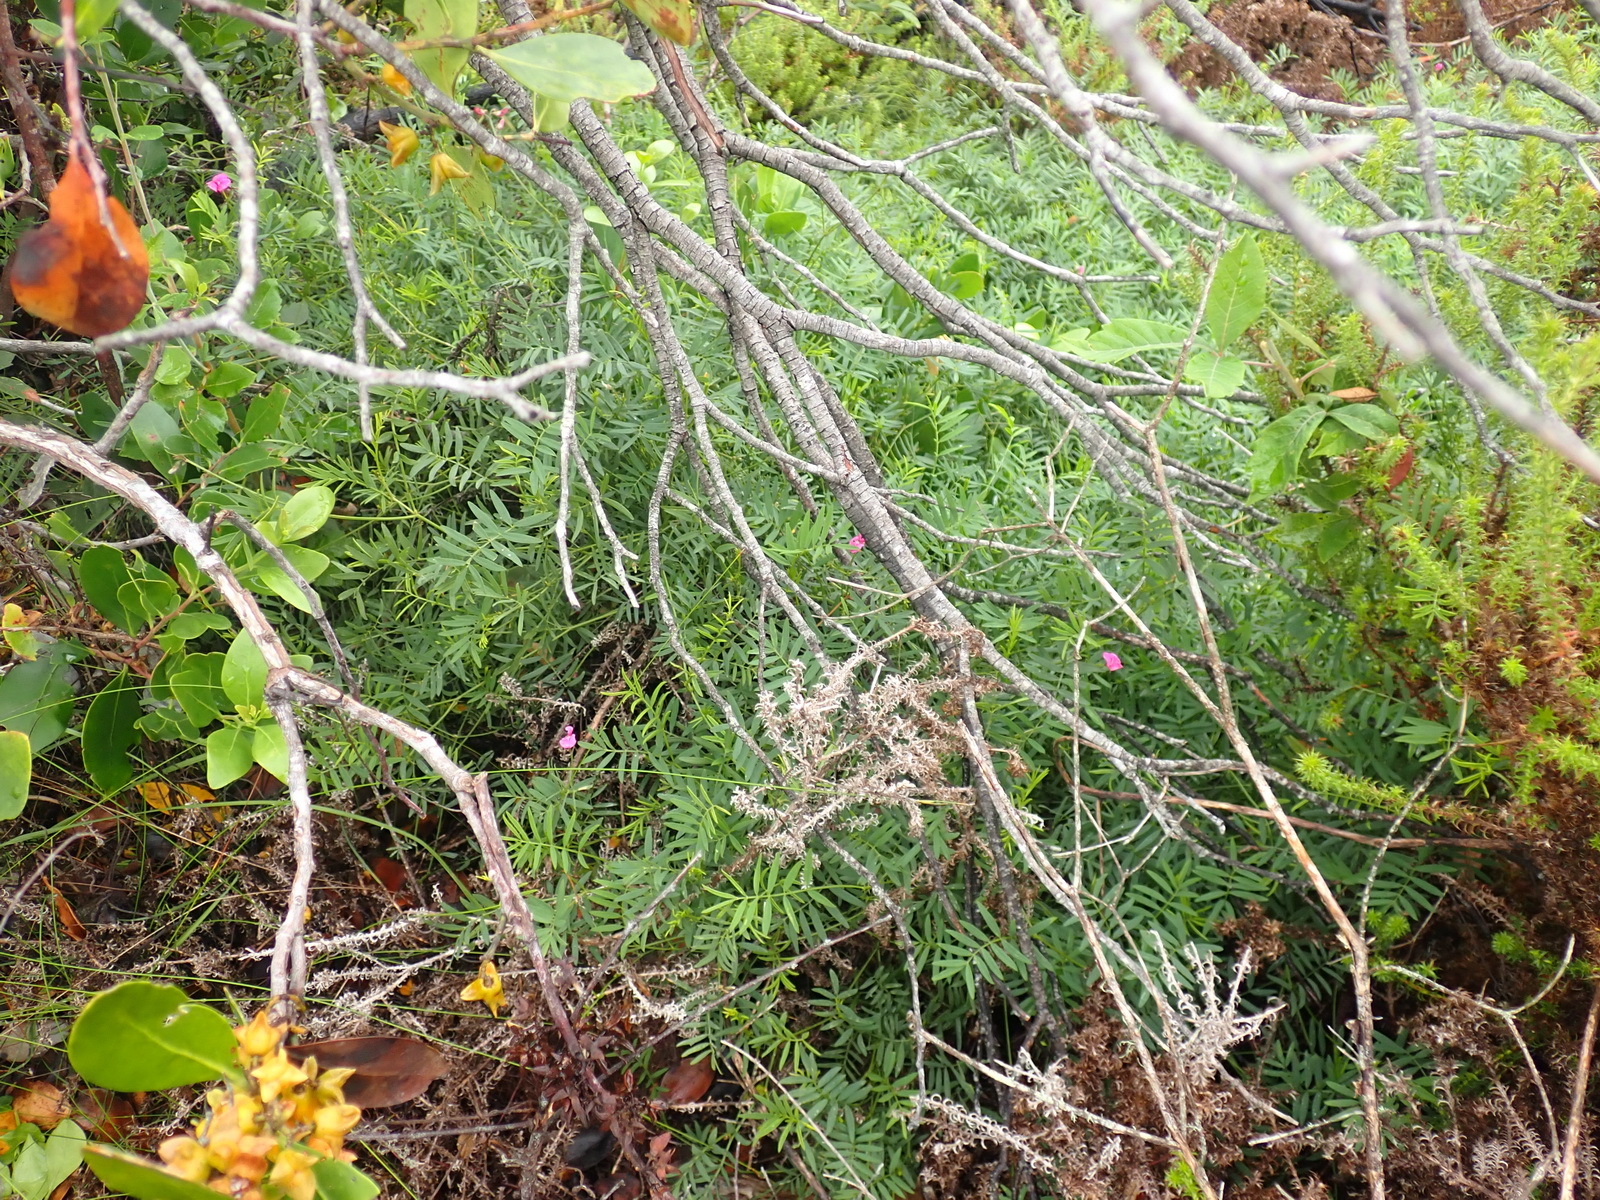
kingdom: Plantae
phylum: Tracheophyta
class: Magnoliopsida
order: Fabales
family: Fabaceae
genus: Tephrosia
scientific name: Tephrosia capensis
